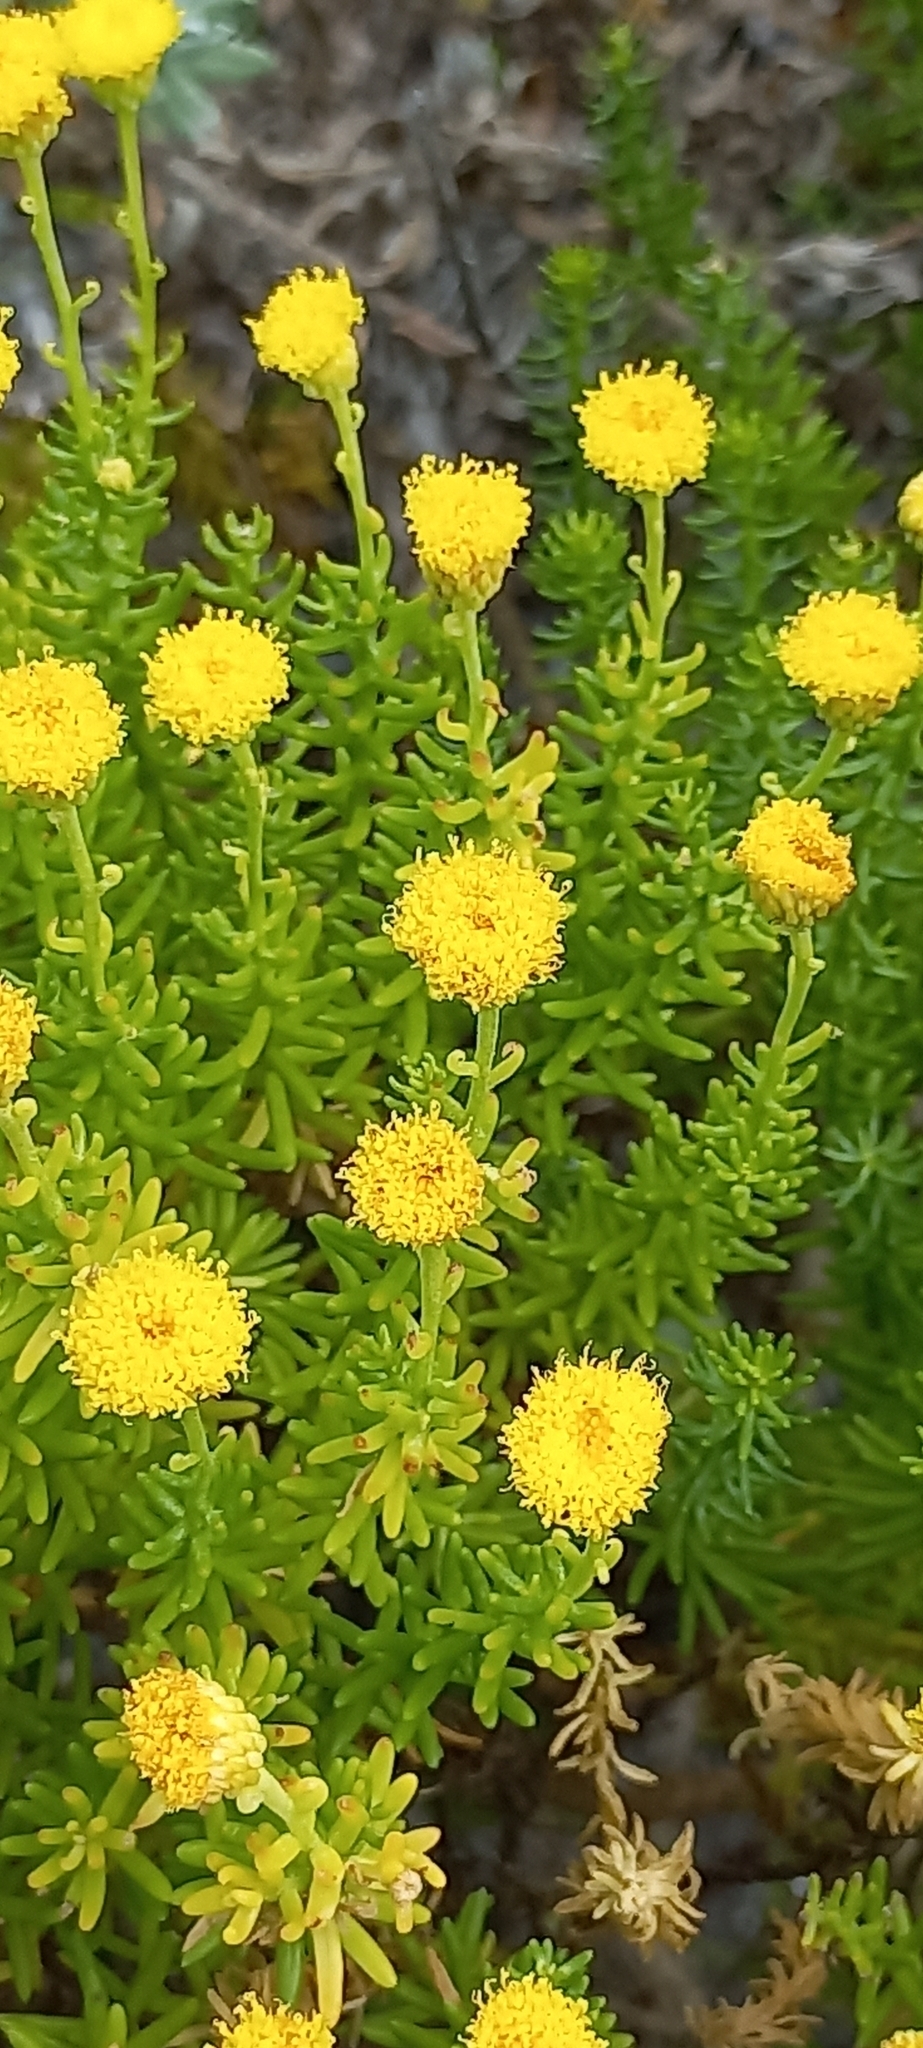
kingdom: Plantae
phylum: Tracheophyta
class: Magnoliopsida
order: Asterales
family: Asteraceae
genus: Chrysocoma
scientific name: Chrysocoma cernua
